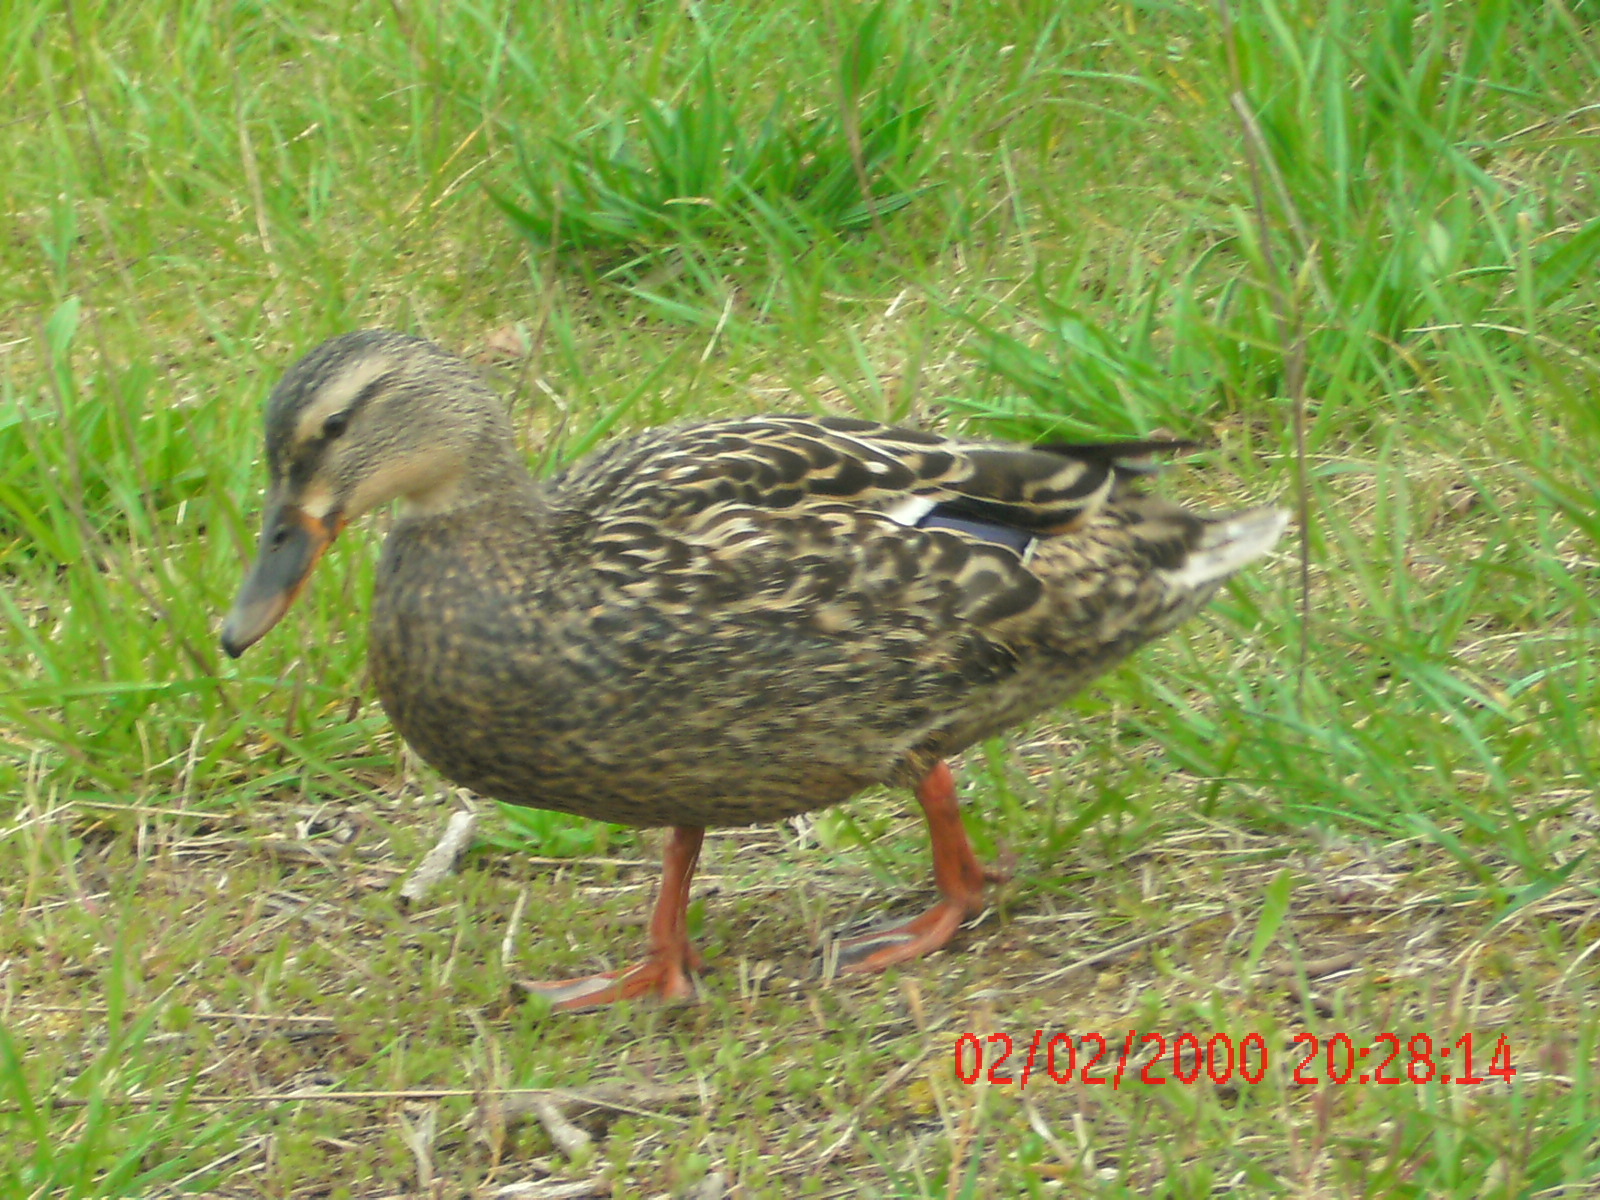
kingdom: Animalia
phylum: Chordata
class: Aves
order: Anseriformes
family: Anatidae
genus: Anas
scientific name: Anas platyrhynchos
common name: Mallard
